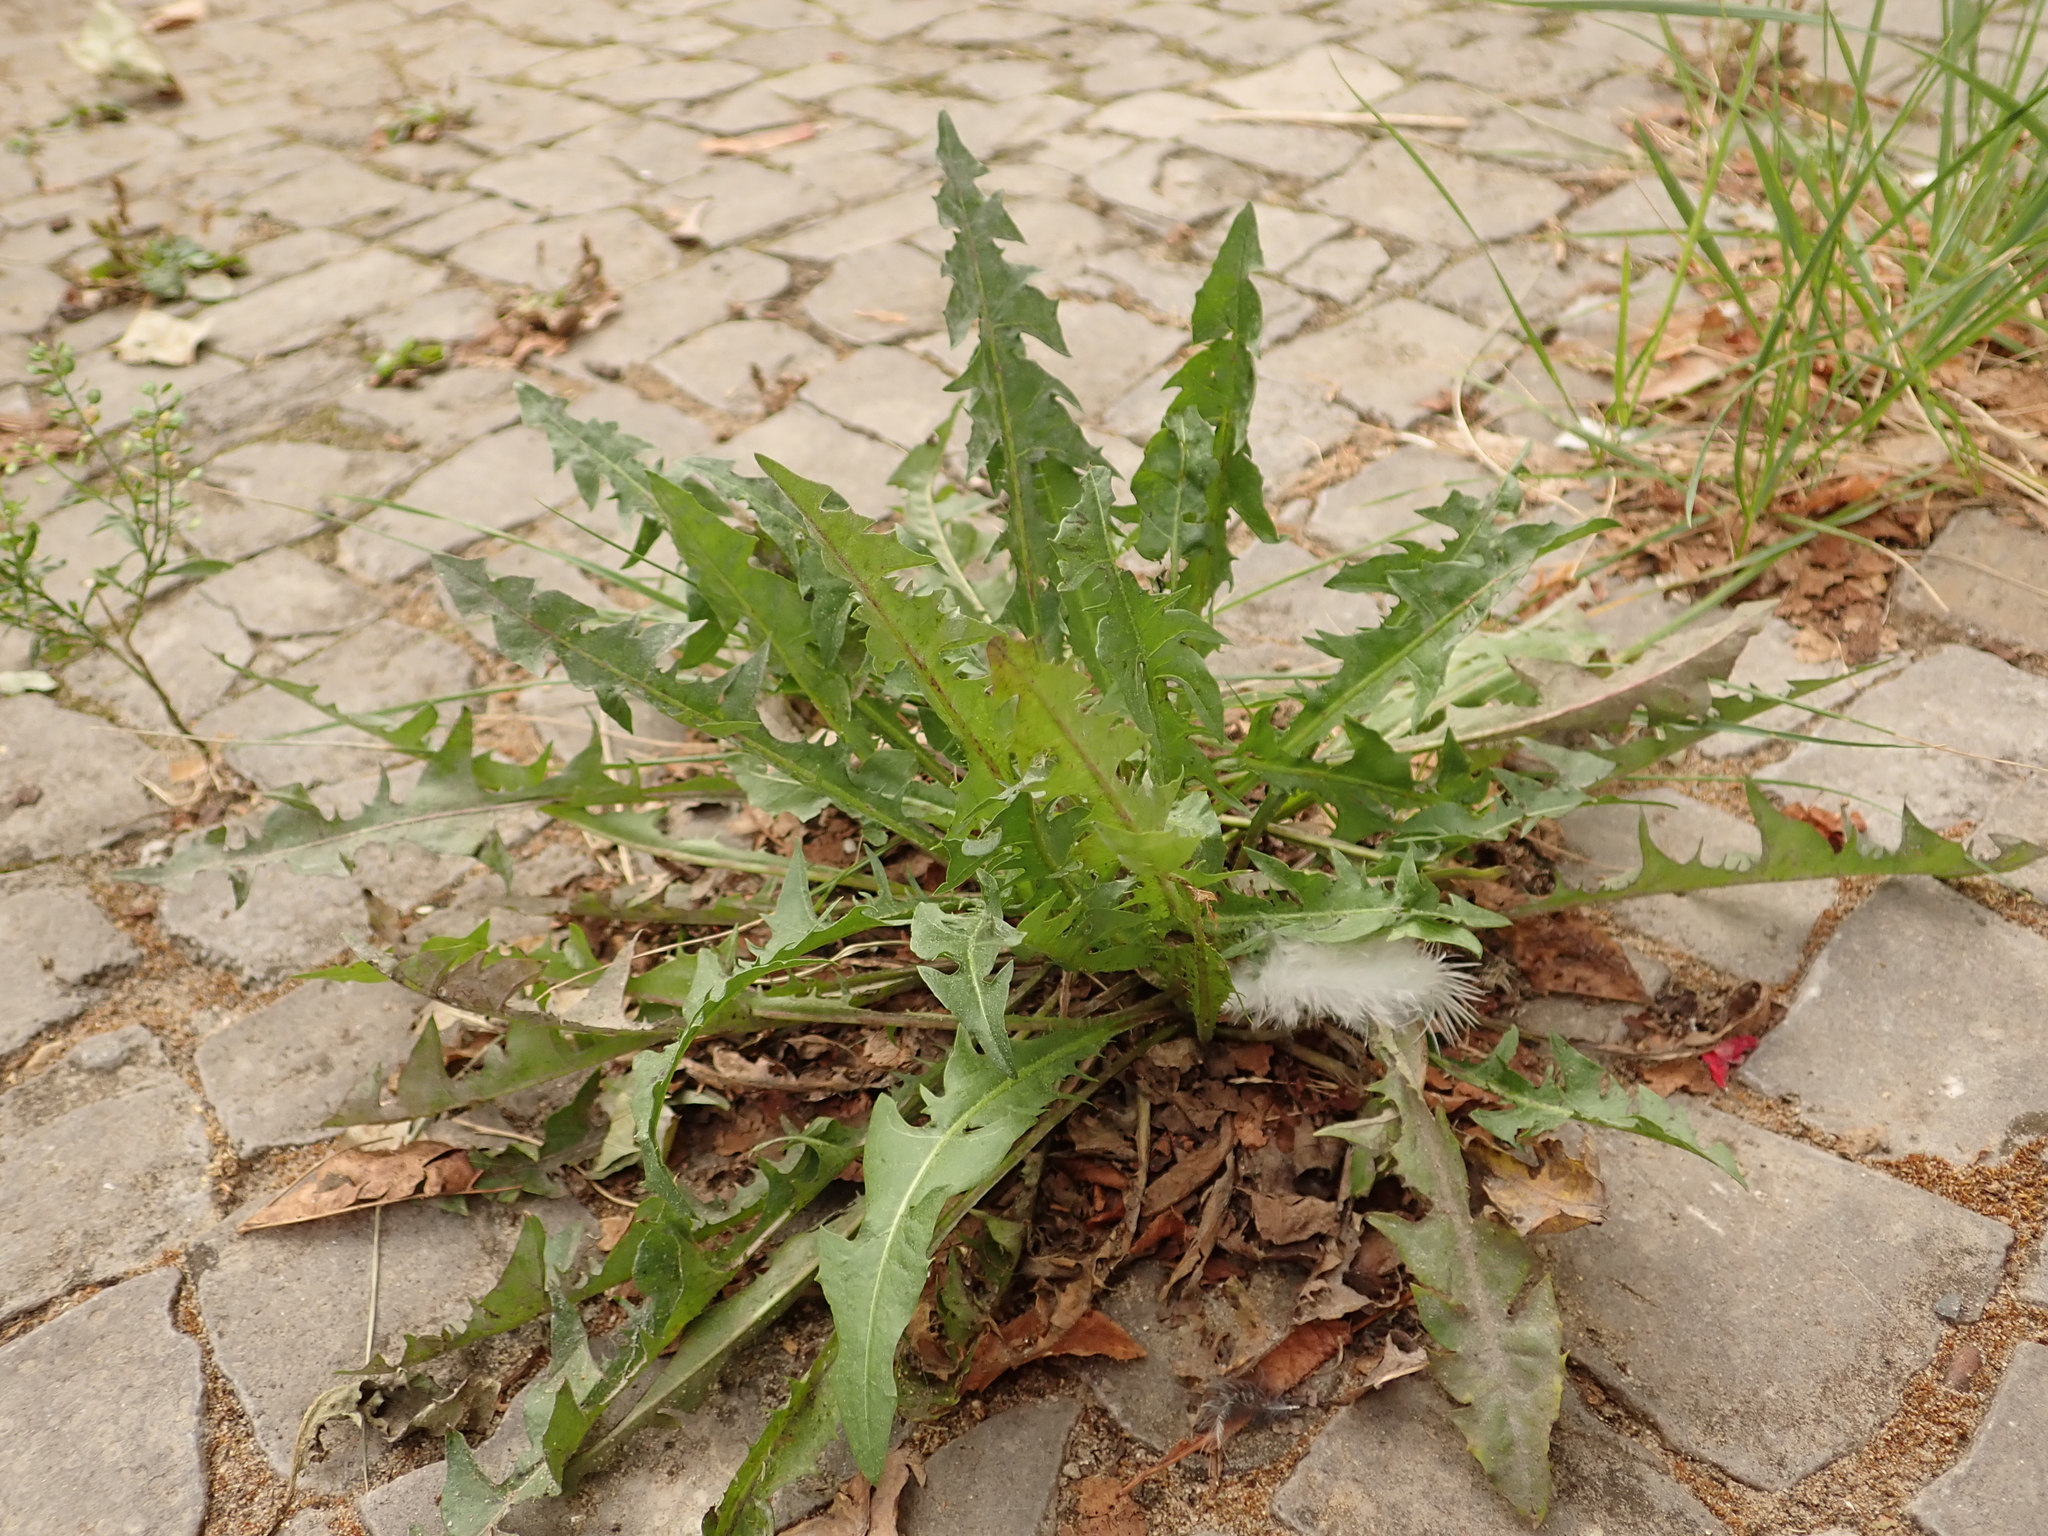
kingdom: Plantae
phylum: Tracheophyta
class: Magnoliopsida
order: Asterales
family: Asteraceae
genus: Taraxacum
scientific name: Taraxacum officinale
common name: Common dandelion
